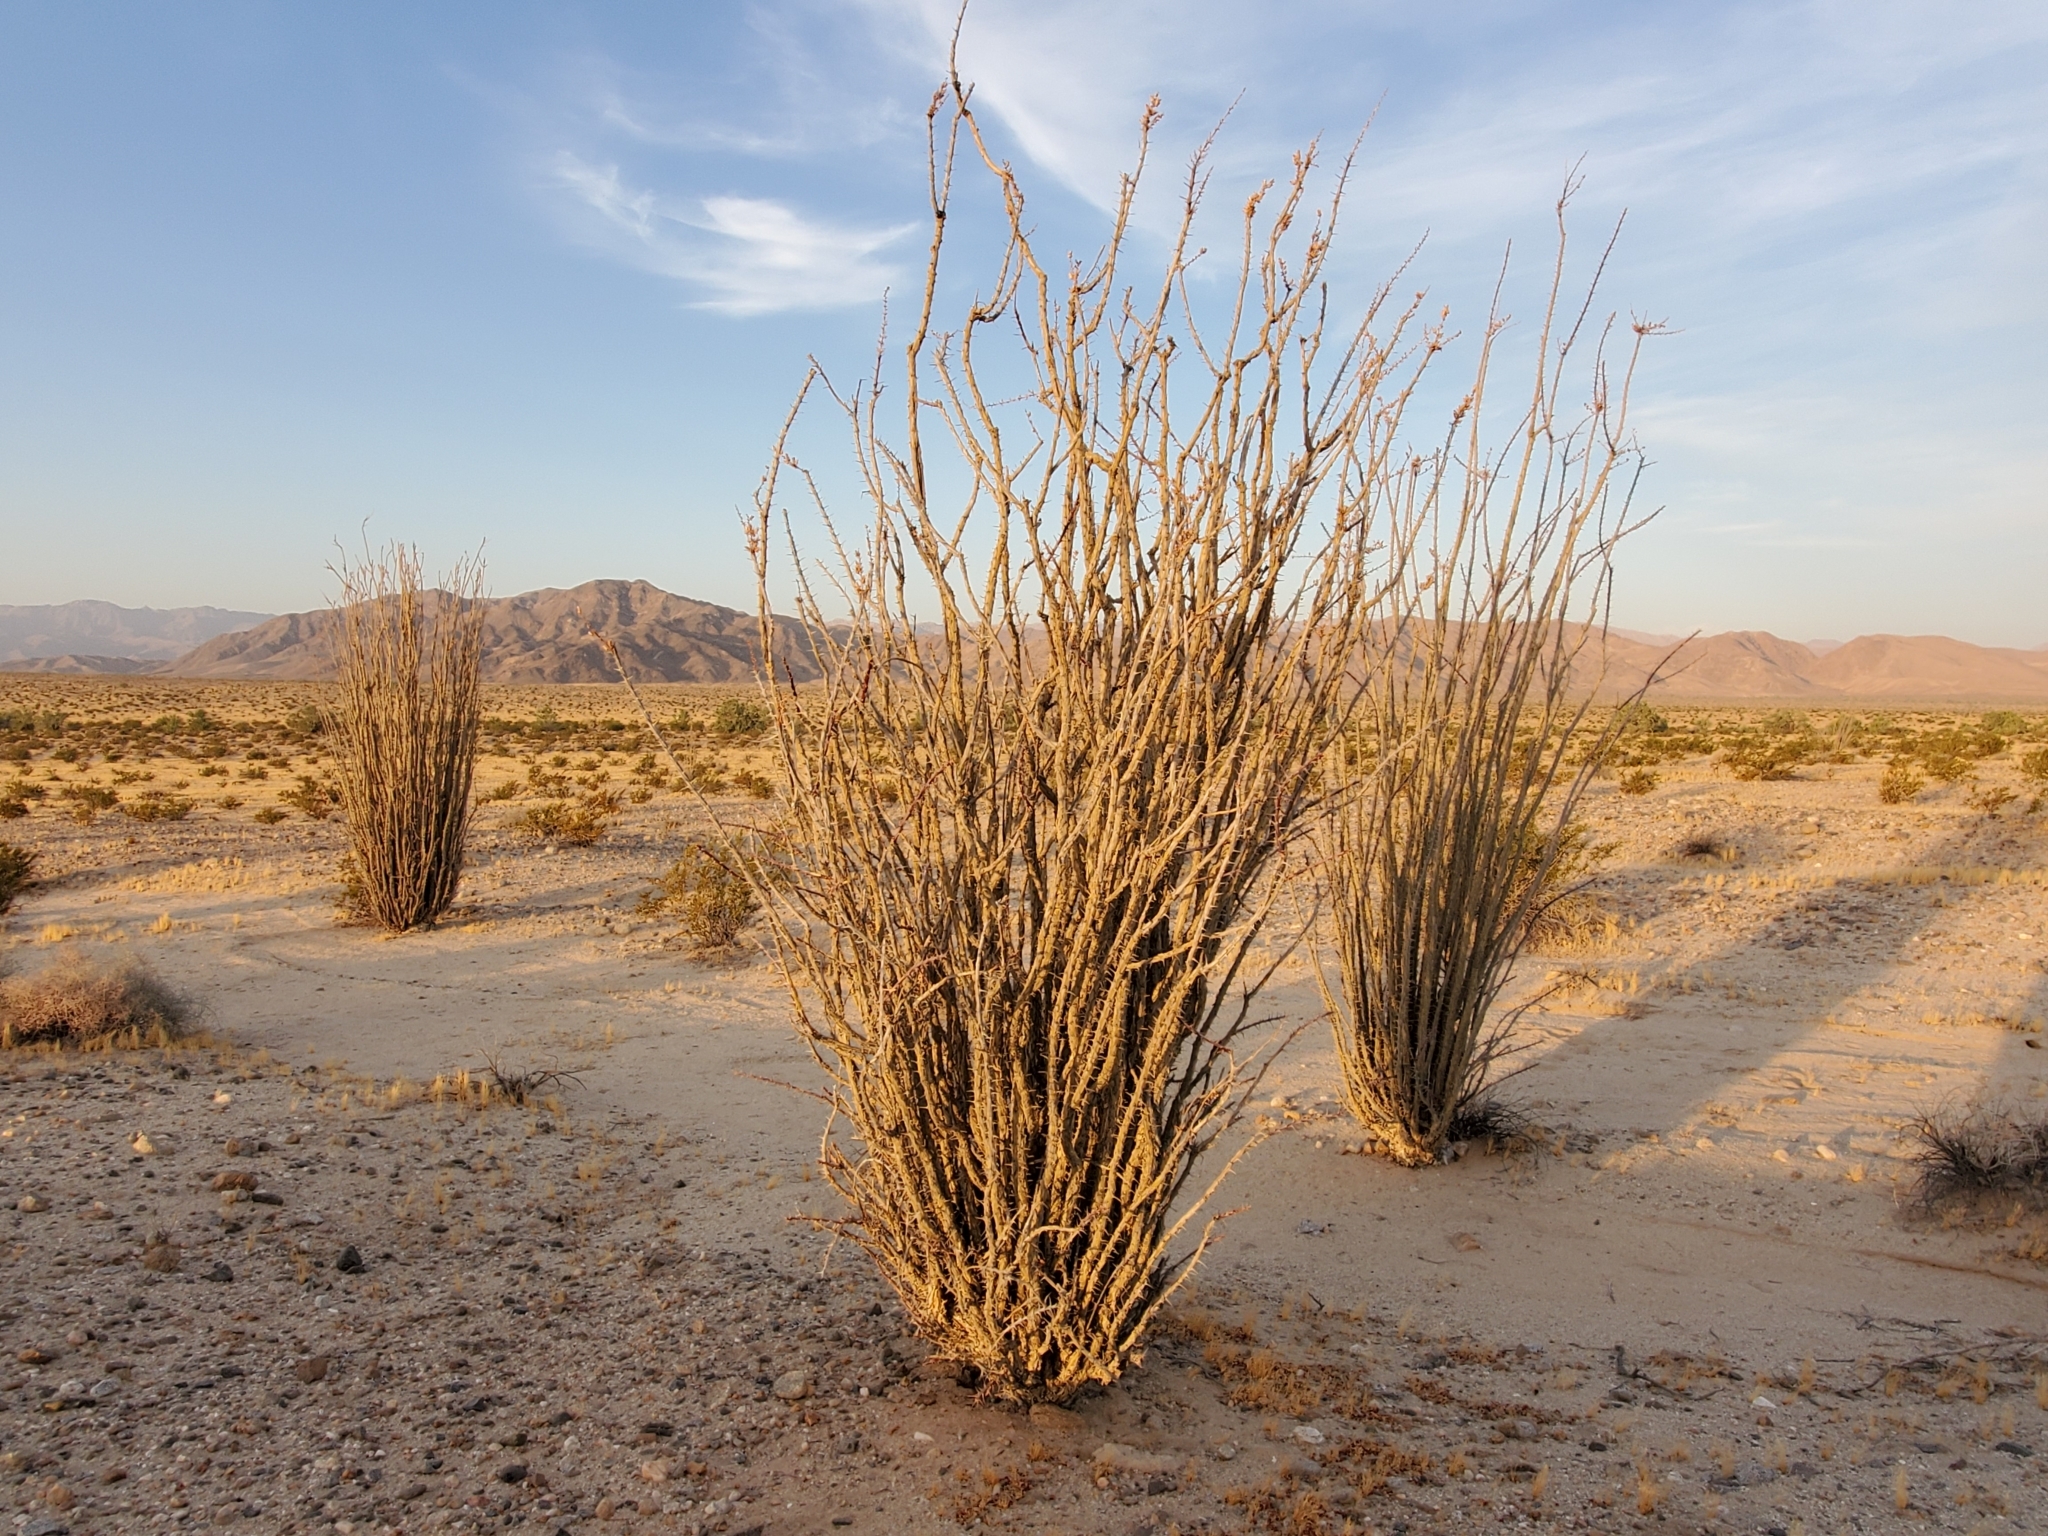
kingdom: Plantae
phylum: Tracheophyta
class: Magnoliopsida
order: Ericales
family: Fouquieriaceae
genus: Fouquieria
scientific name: Fouquieria splendens
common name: Vine-cactus
